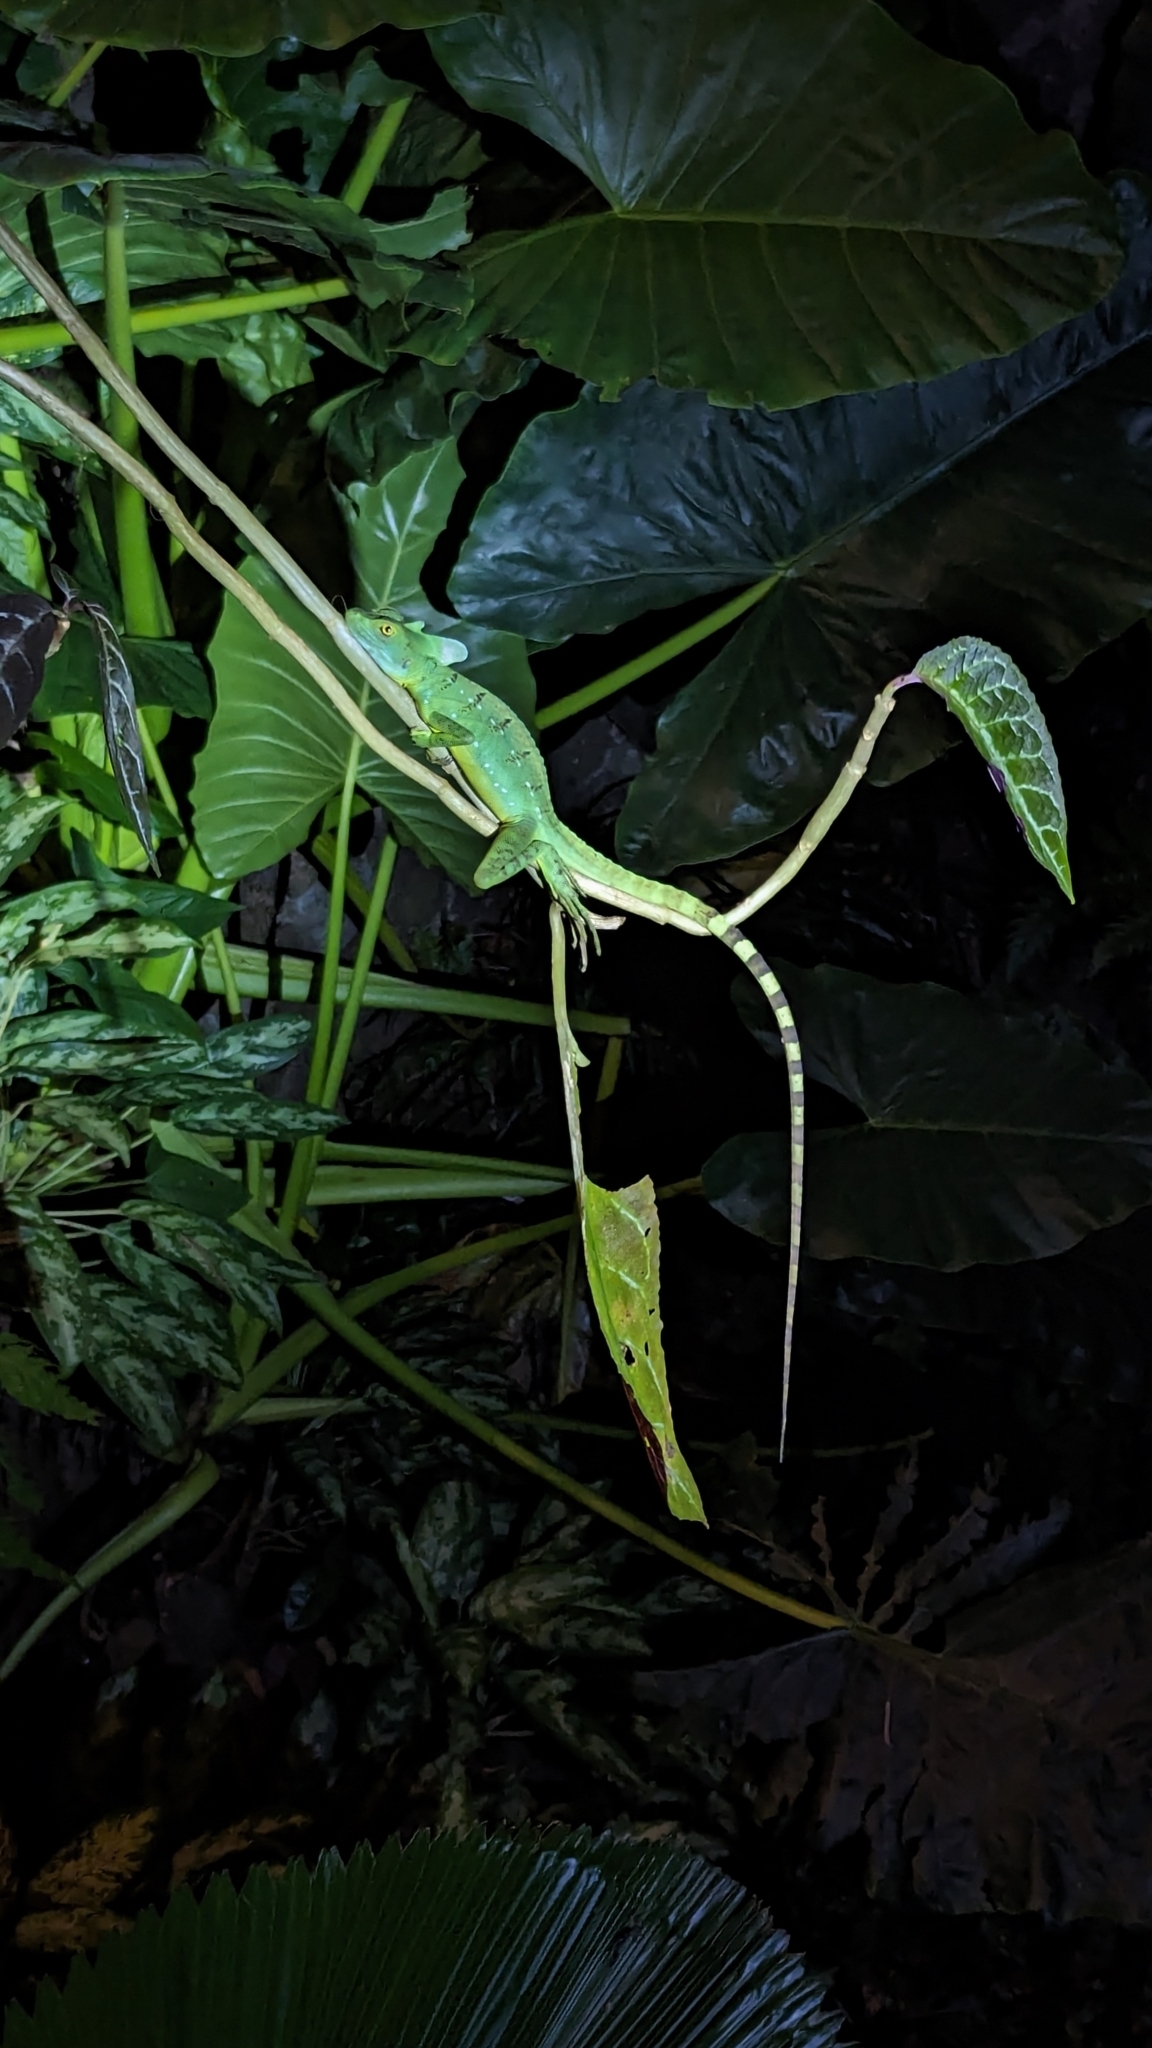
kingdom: Animalia
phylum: Chordata
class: Squamata
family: Corytophanidae
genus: Basiliscus
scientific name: Basiliscus plumifrons
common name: Green basilisk
